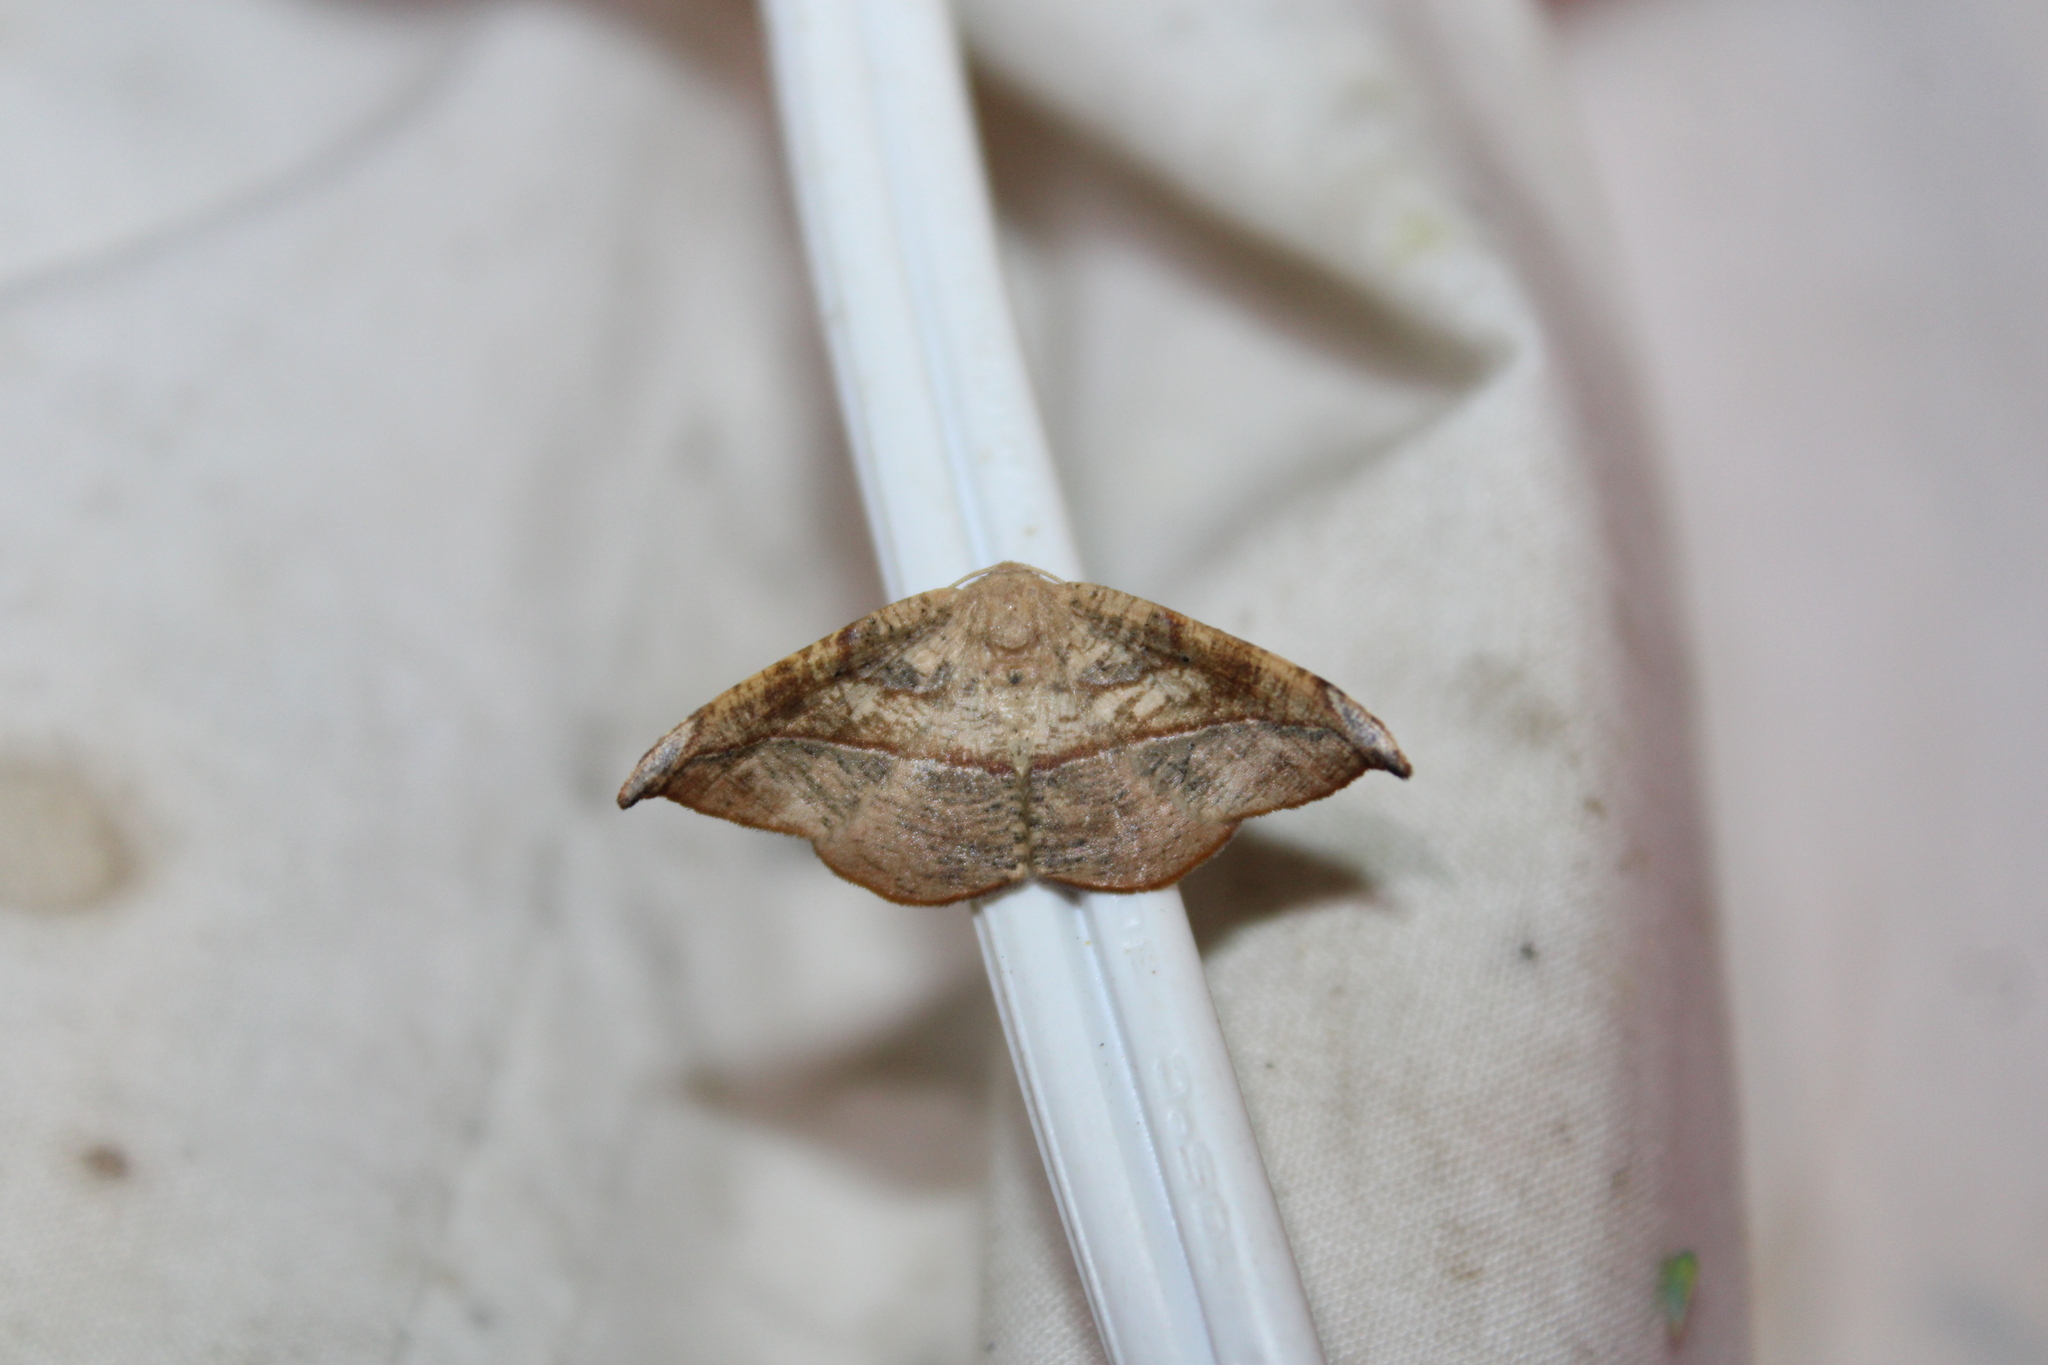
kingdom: Animalia
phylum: Arthropoda
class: Insecta
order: Lepidoptera
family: Geometridae
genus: Patalene
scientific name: Patalene olyzonaria
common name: Juniper geometer moth
